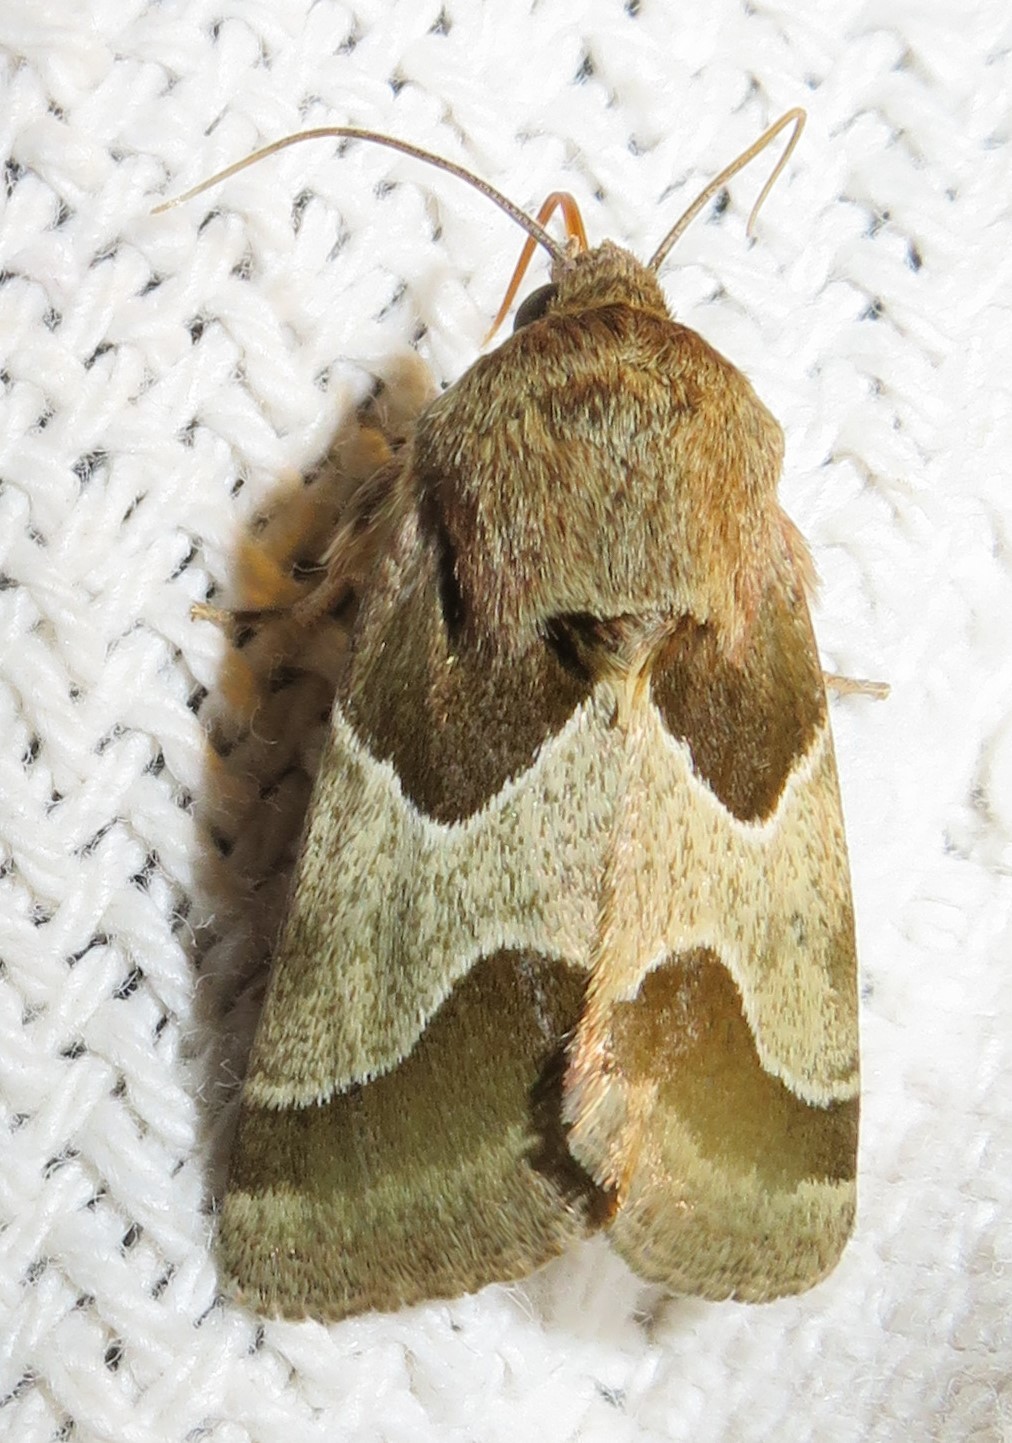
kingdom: Animalia
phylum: Arthropoda
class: Insecta
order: Lepidoptera
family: Noctuidae
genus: Schinia
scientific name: Schinia jaguarina
